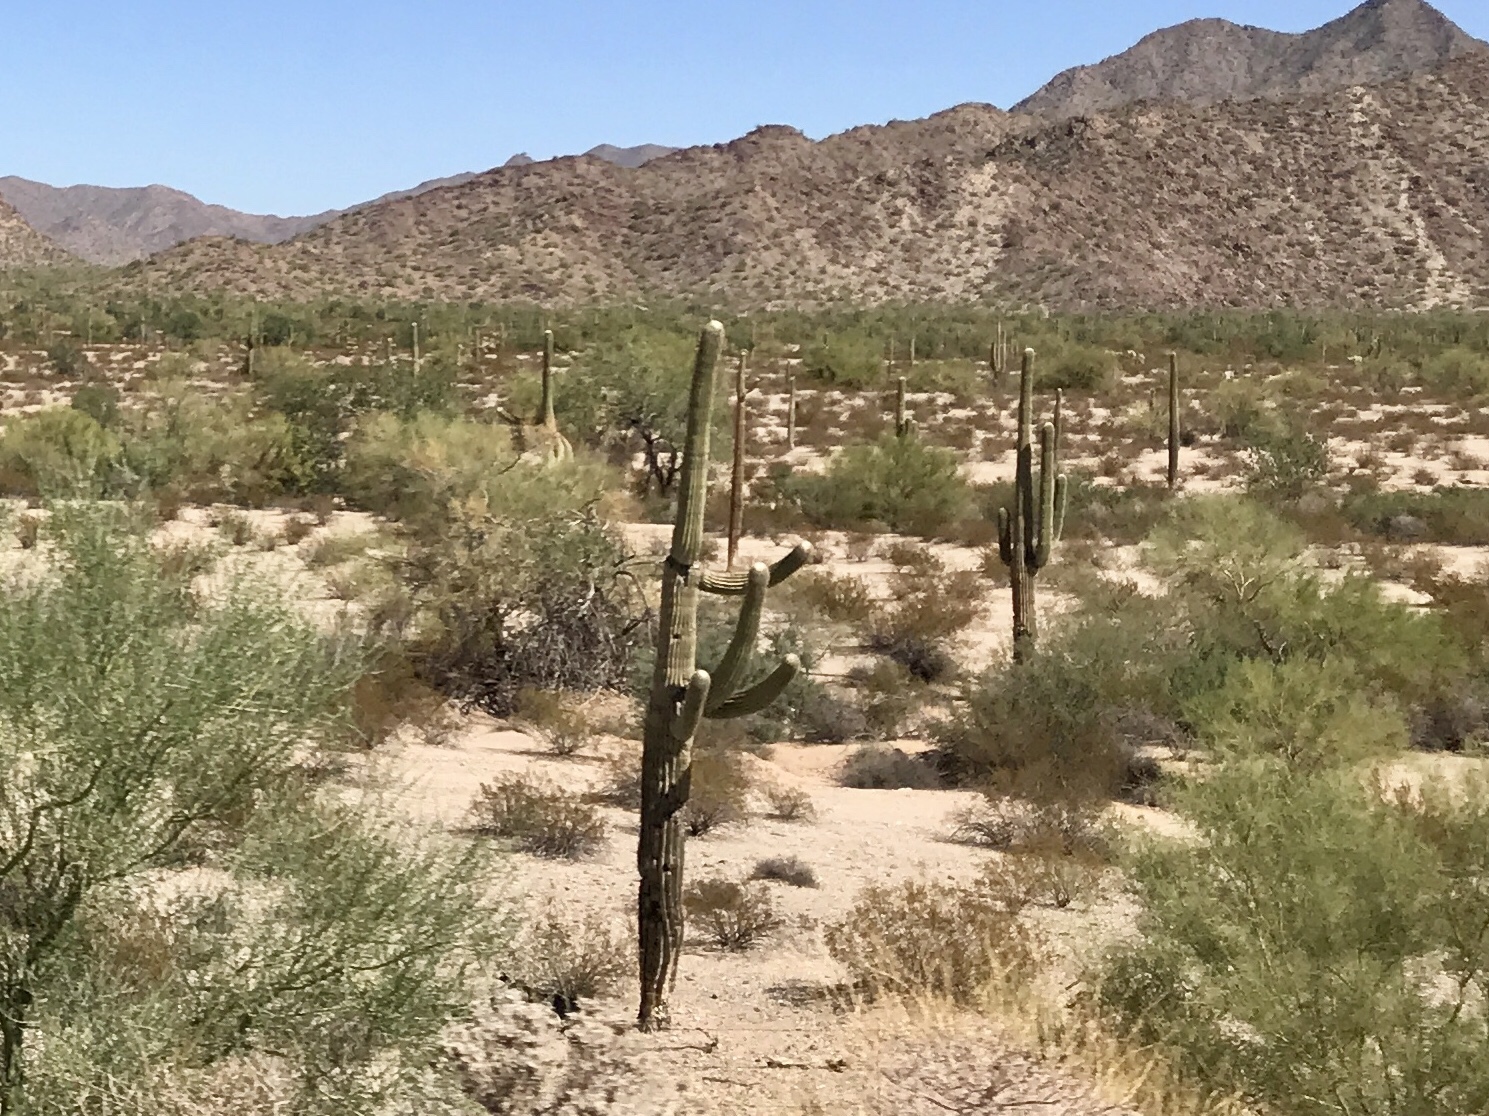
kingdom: Plantae
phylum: Tracheophyta
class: Magnoliopsida
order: Caryophyllales
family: Cactaceae
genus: Carnegiea
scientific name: Carnegiea gigantea
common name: Saguaro
